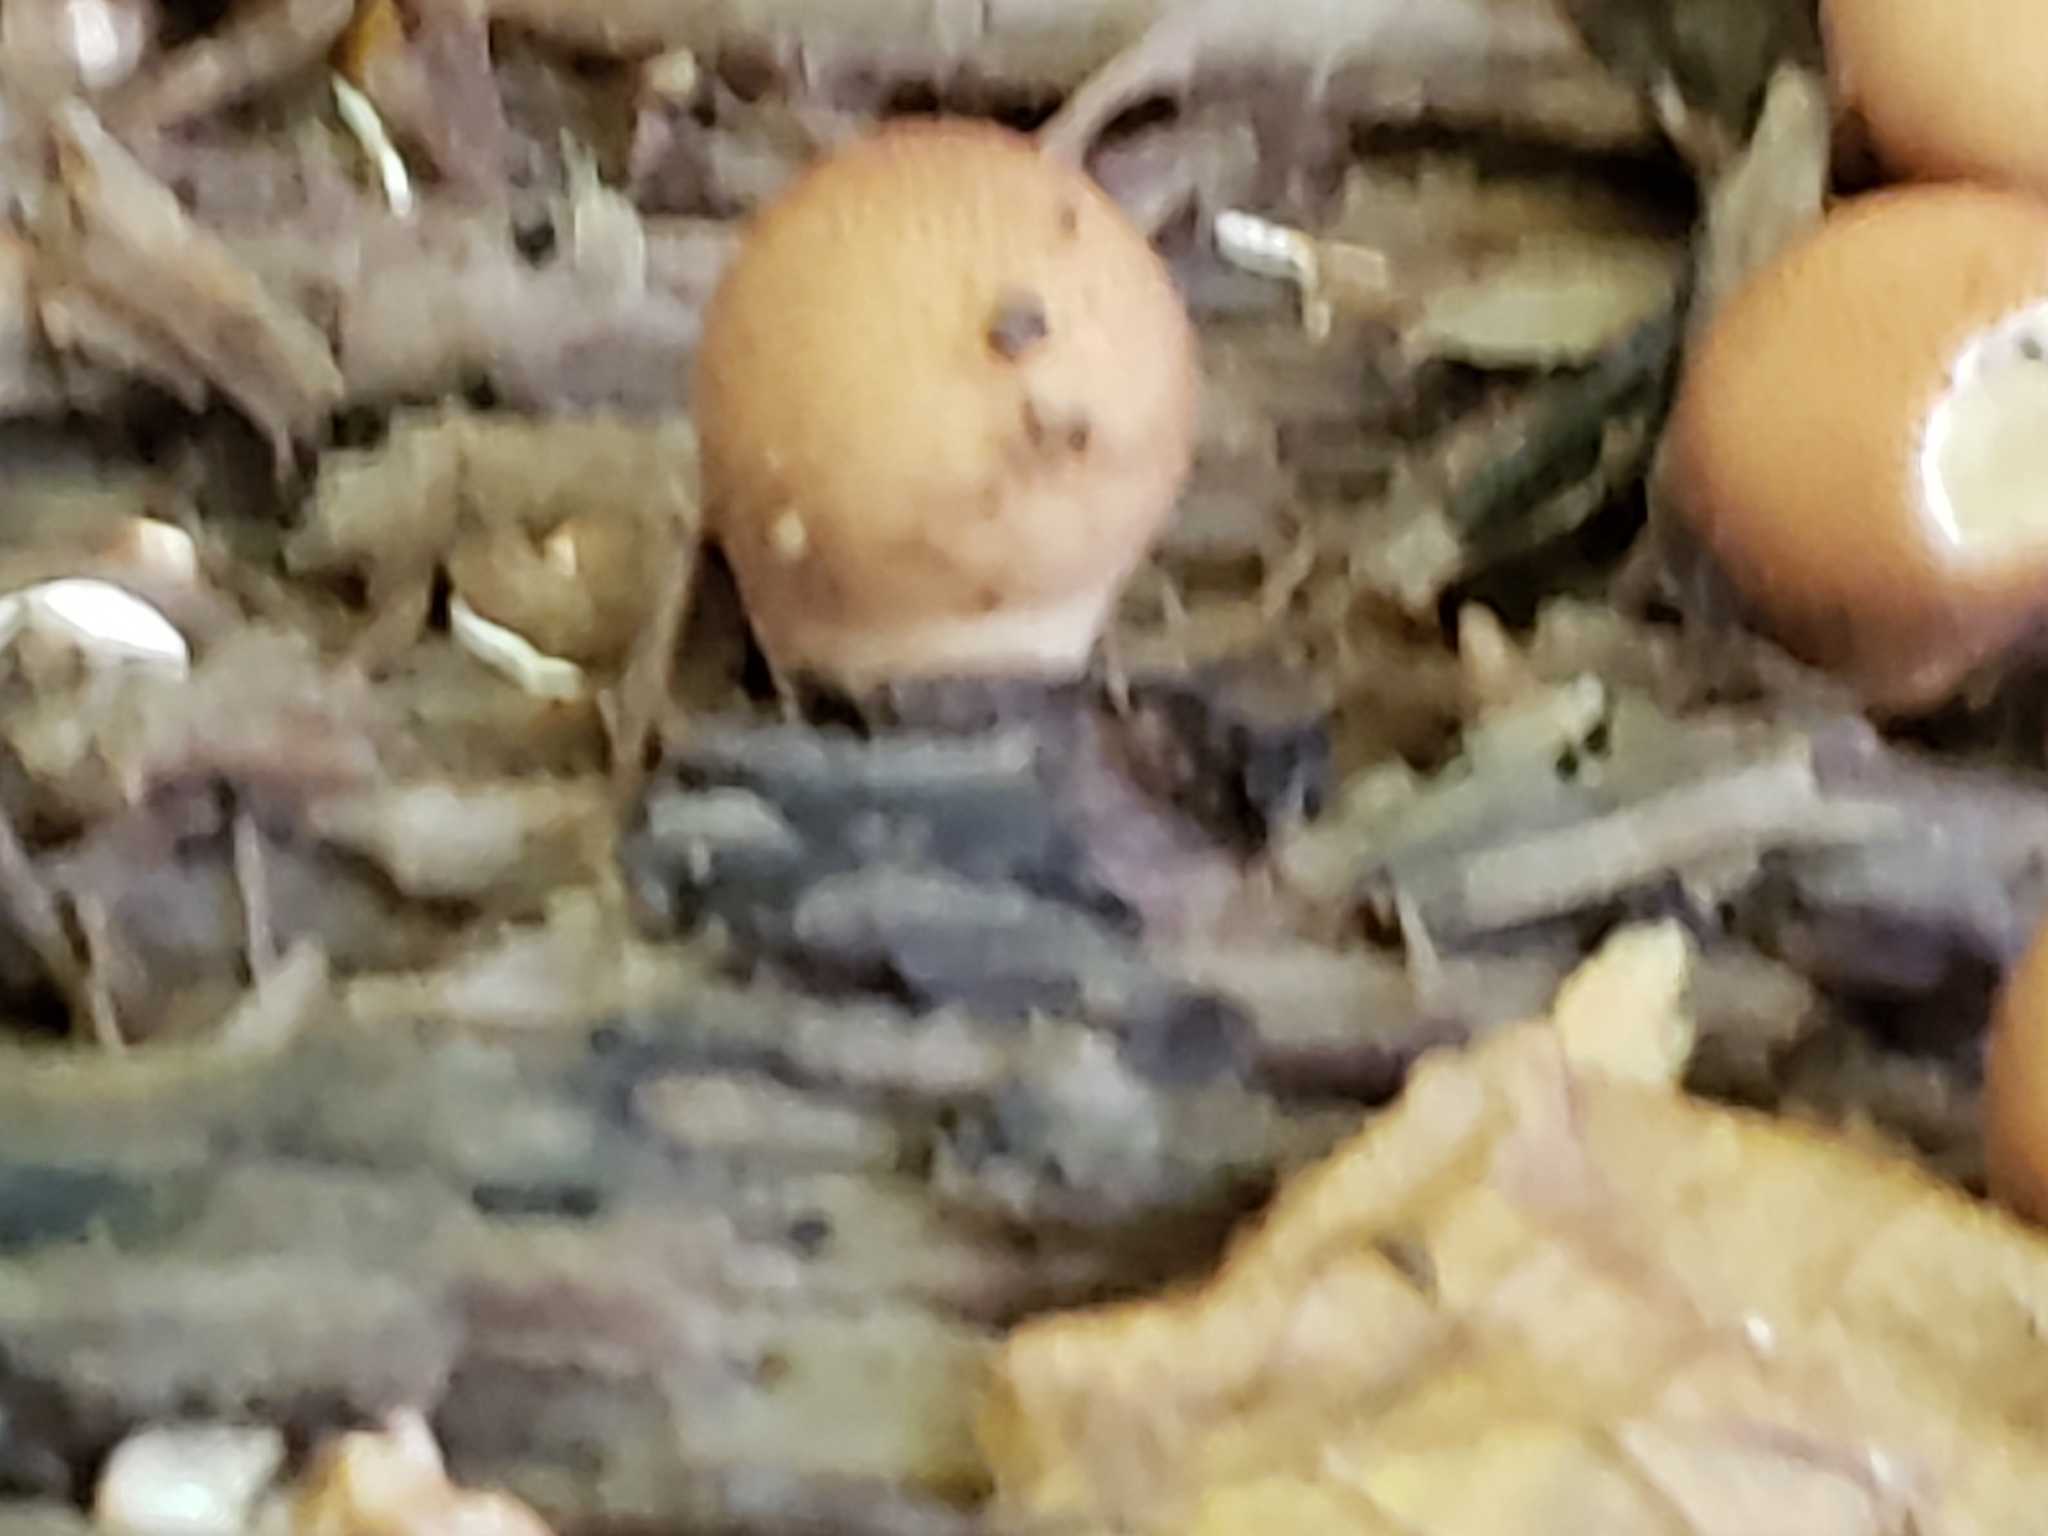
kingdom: Fungi
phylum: Basidiomycota
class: Agaricomycetes
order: Agaricales
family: Lycoperdaceae
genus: Apioperdon
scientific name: Apioperdon pyriforme
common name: Pear-shaped puffball
